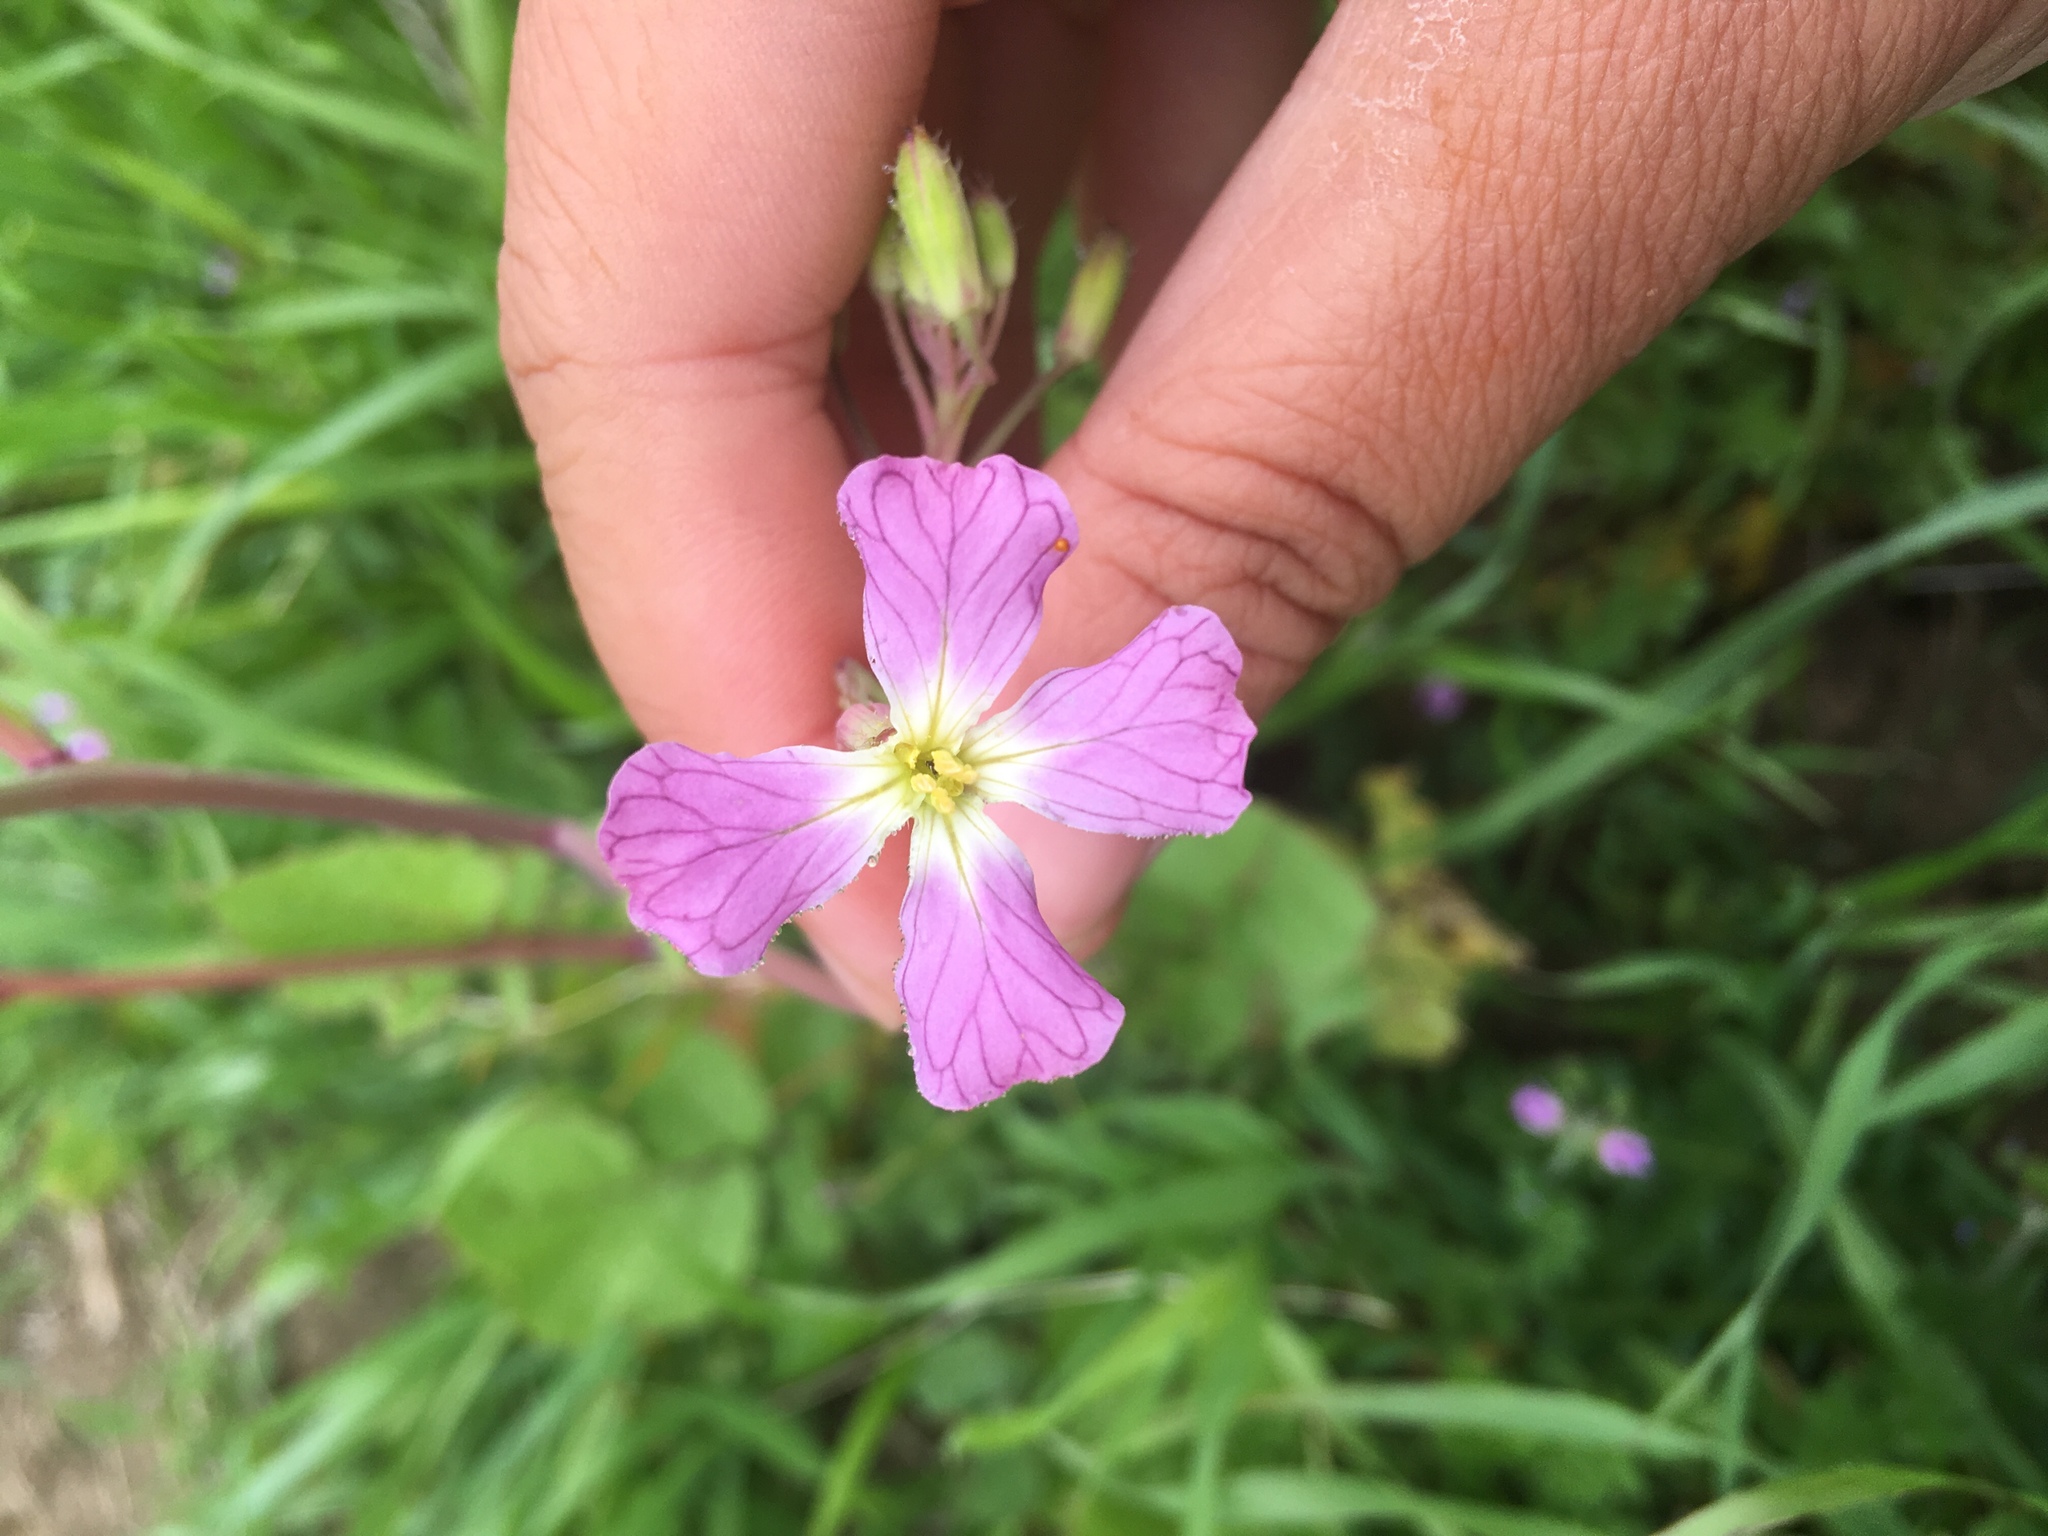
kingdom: Plantae
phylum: Tracheophyta
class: Magnoliopsida
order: Brassicales
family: Brassicaceae
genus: Raphanus
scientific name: Raphanus sativus
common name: Cultivated radish
